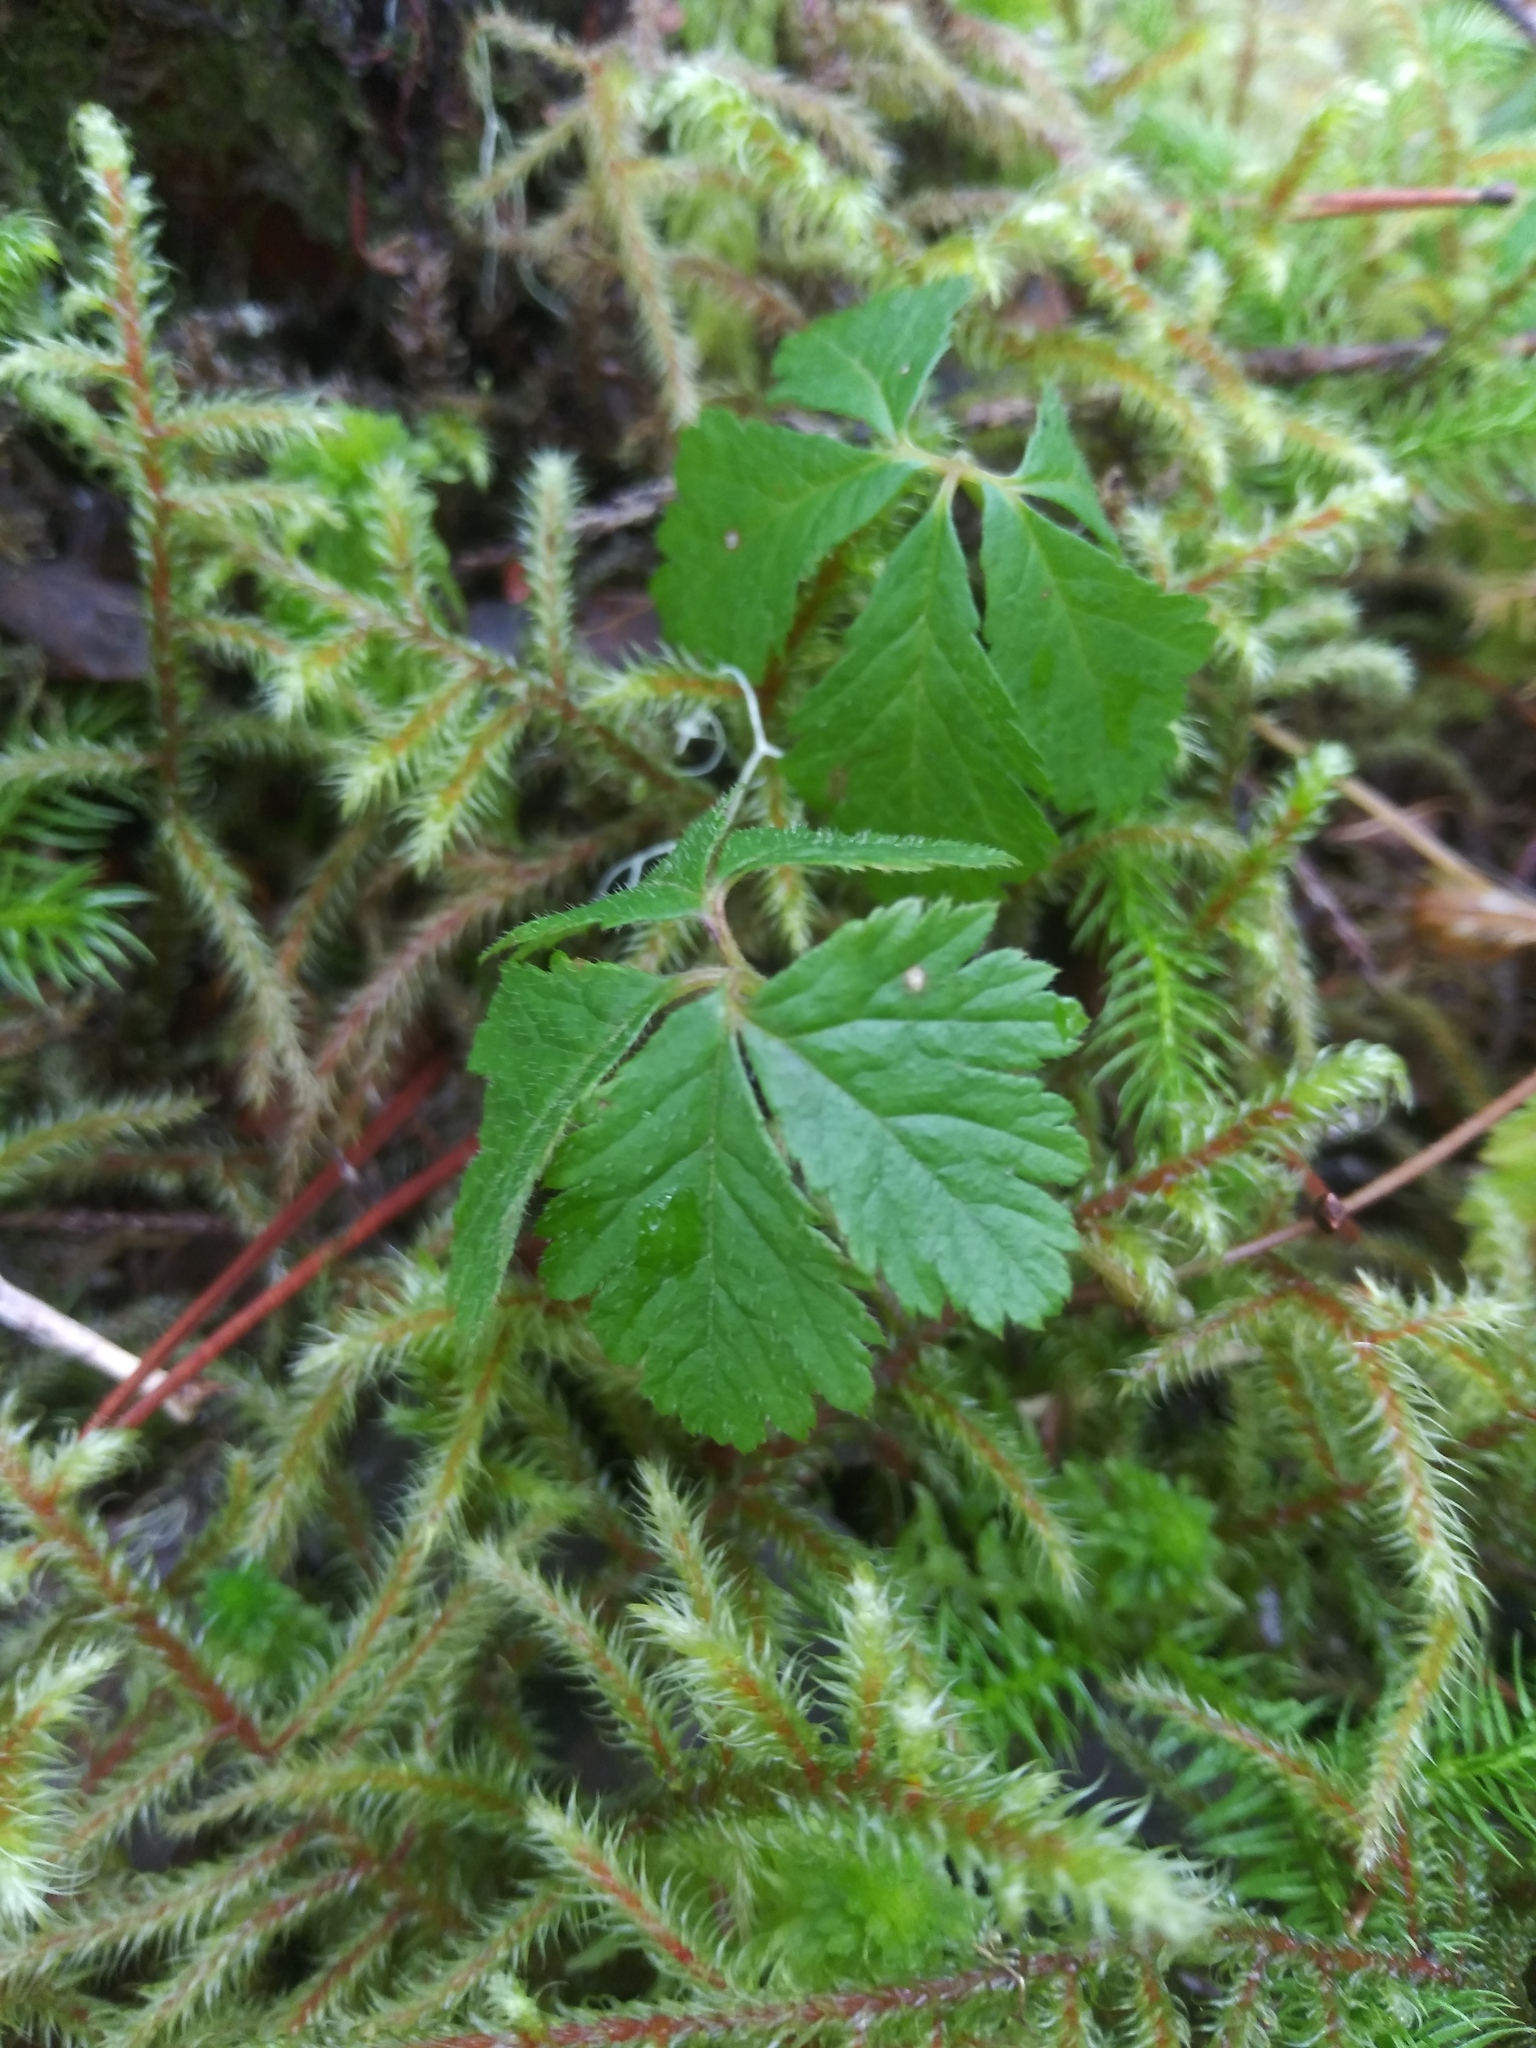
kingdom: Plantae
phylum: Tracheophyta
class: Magnoliopsida
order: Rosales
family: Rosaceae
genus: Rubus
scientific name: Rubus pedatus
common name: Creeping raspberry
